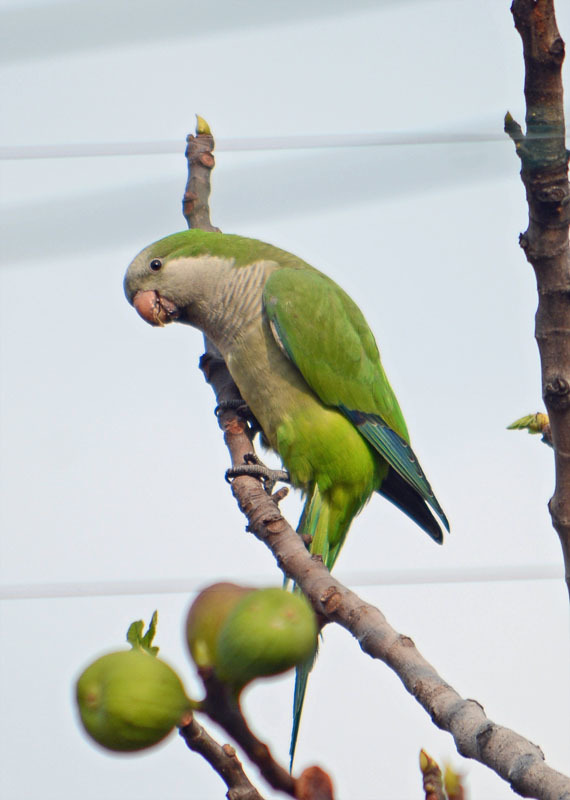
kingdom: Animalia
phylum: Chordata
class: Aves
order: Psittaciformes
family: Psittacidae
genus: Myiopsitta
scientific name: Myiopsitta monachus
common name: Monk parakeet
